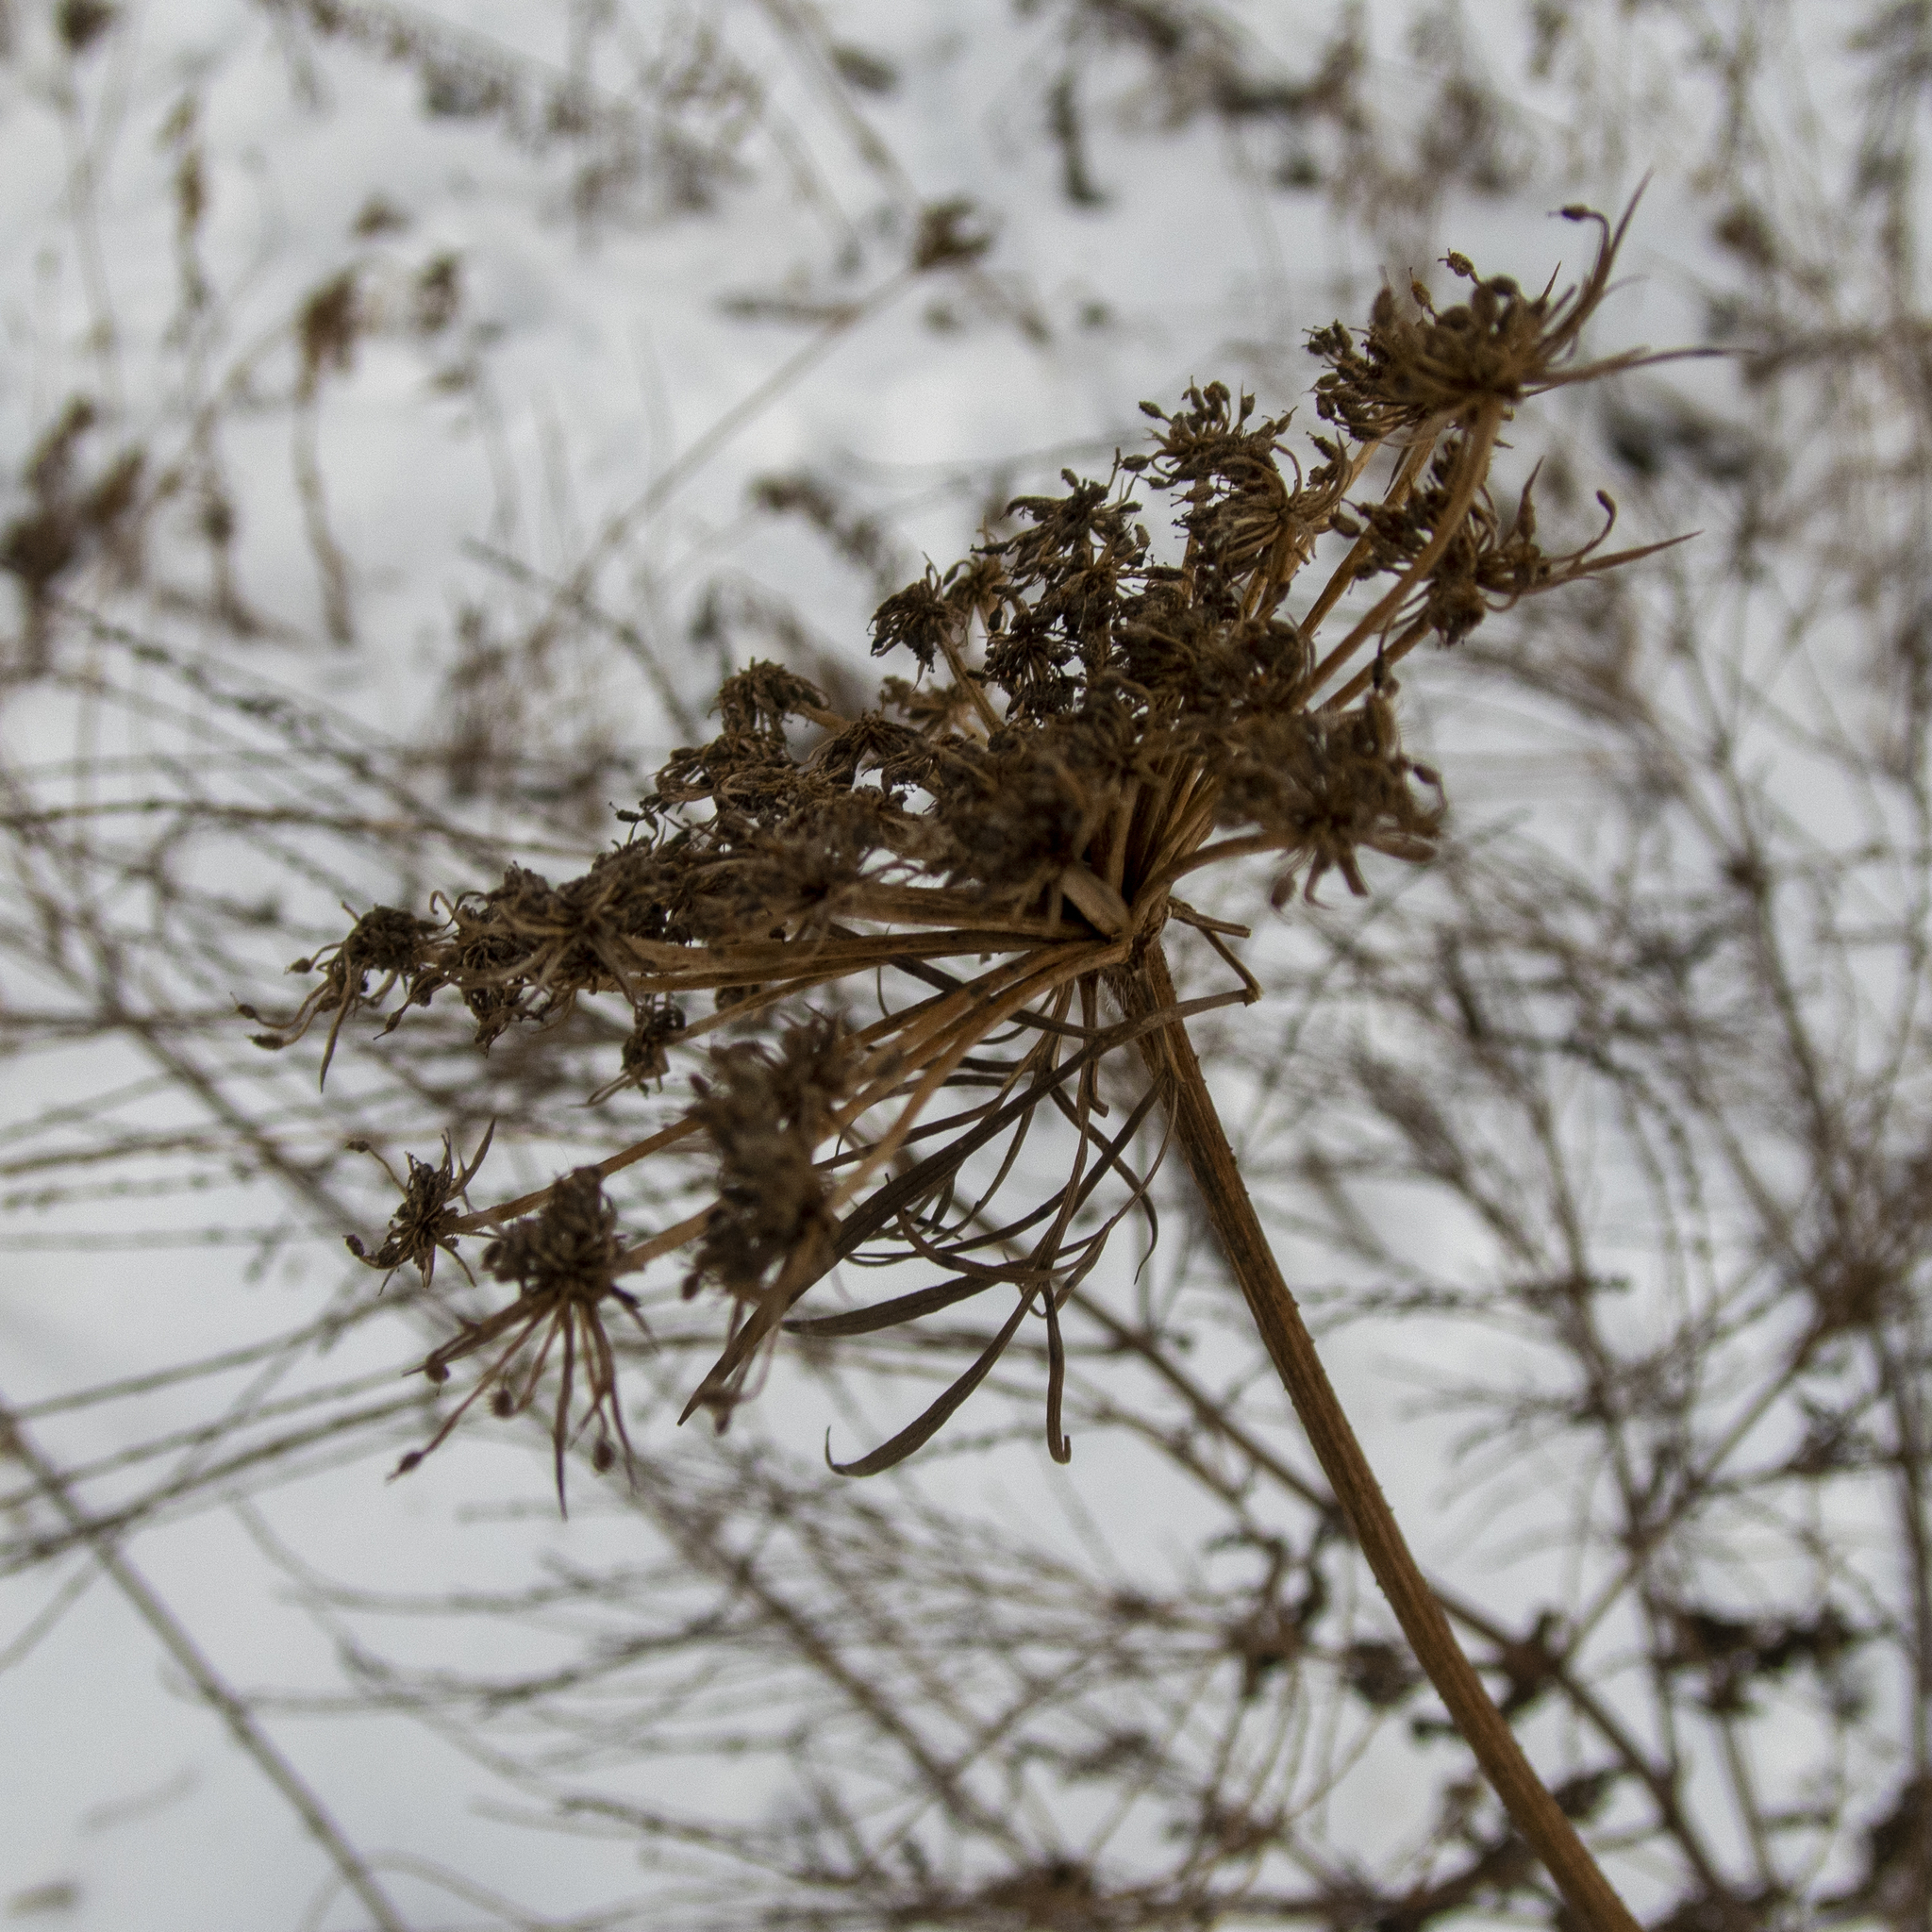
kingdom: Plantae
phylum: Tracheophyta
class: Magnoliopsida
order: Apiales
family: Apiaceae
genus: Daucus
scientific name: Daucus carota
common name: Wild carrot
